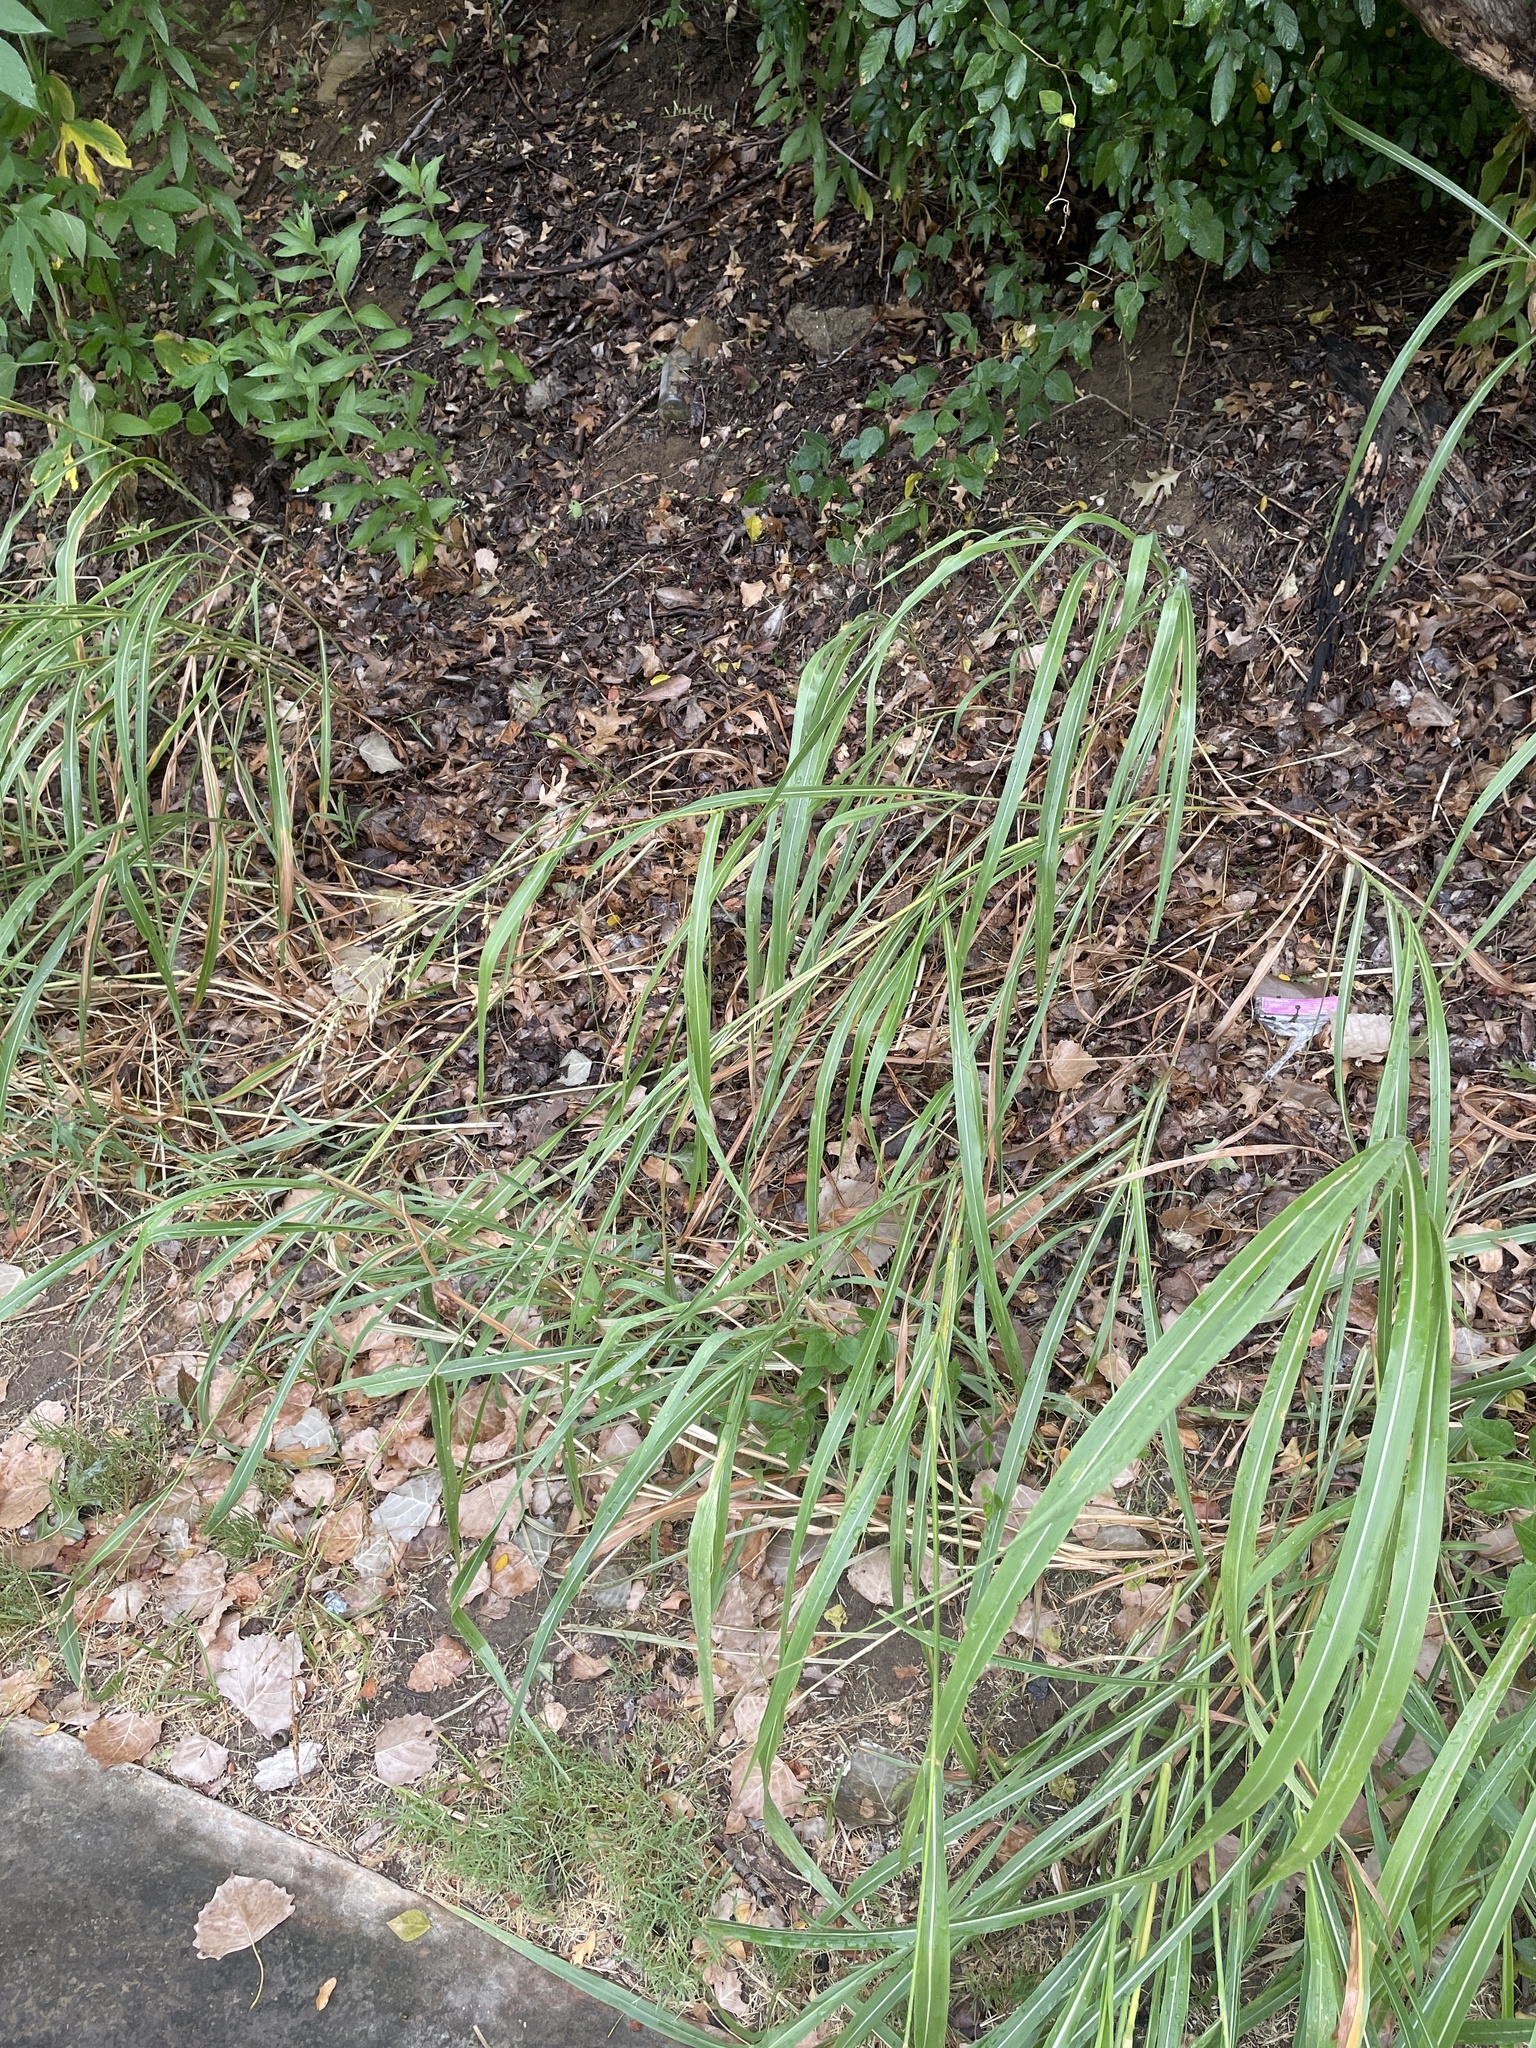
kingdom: Plantae
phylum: Tracheophyta
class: Liliopsida
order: Poales
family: Poaceae
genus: Sorghum
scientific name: Sorghum halepense
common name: Johnson-grass
